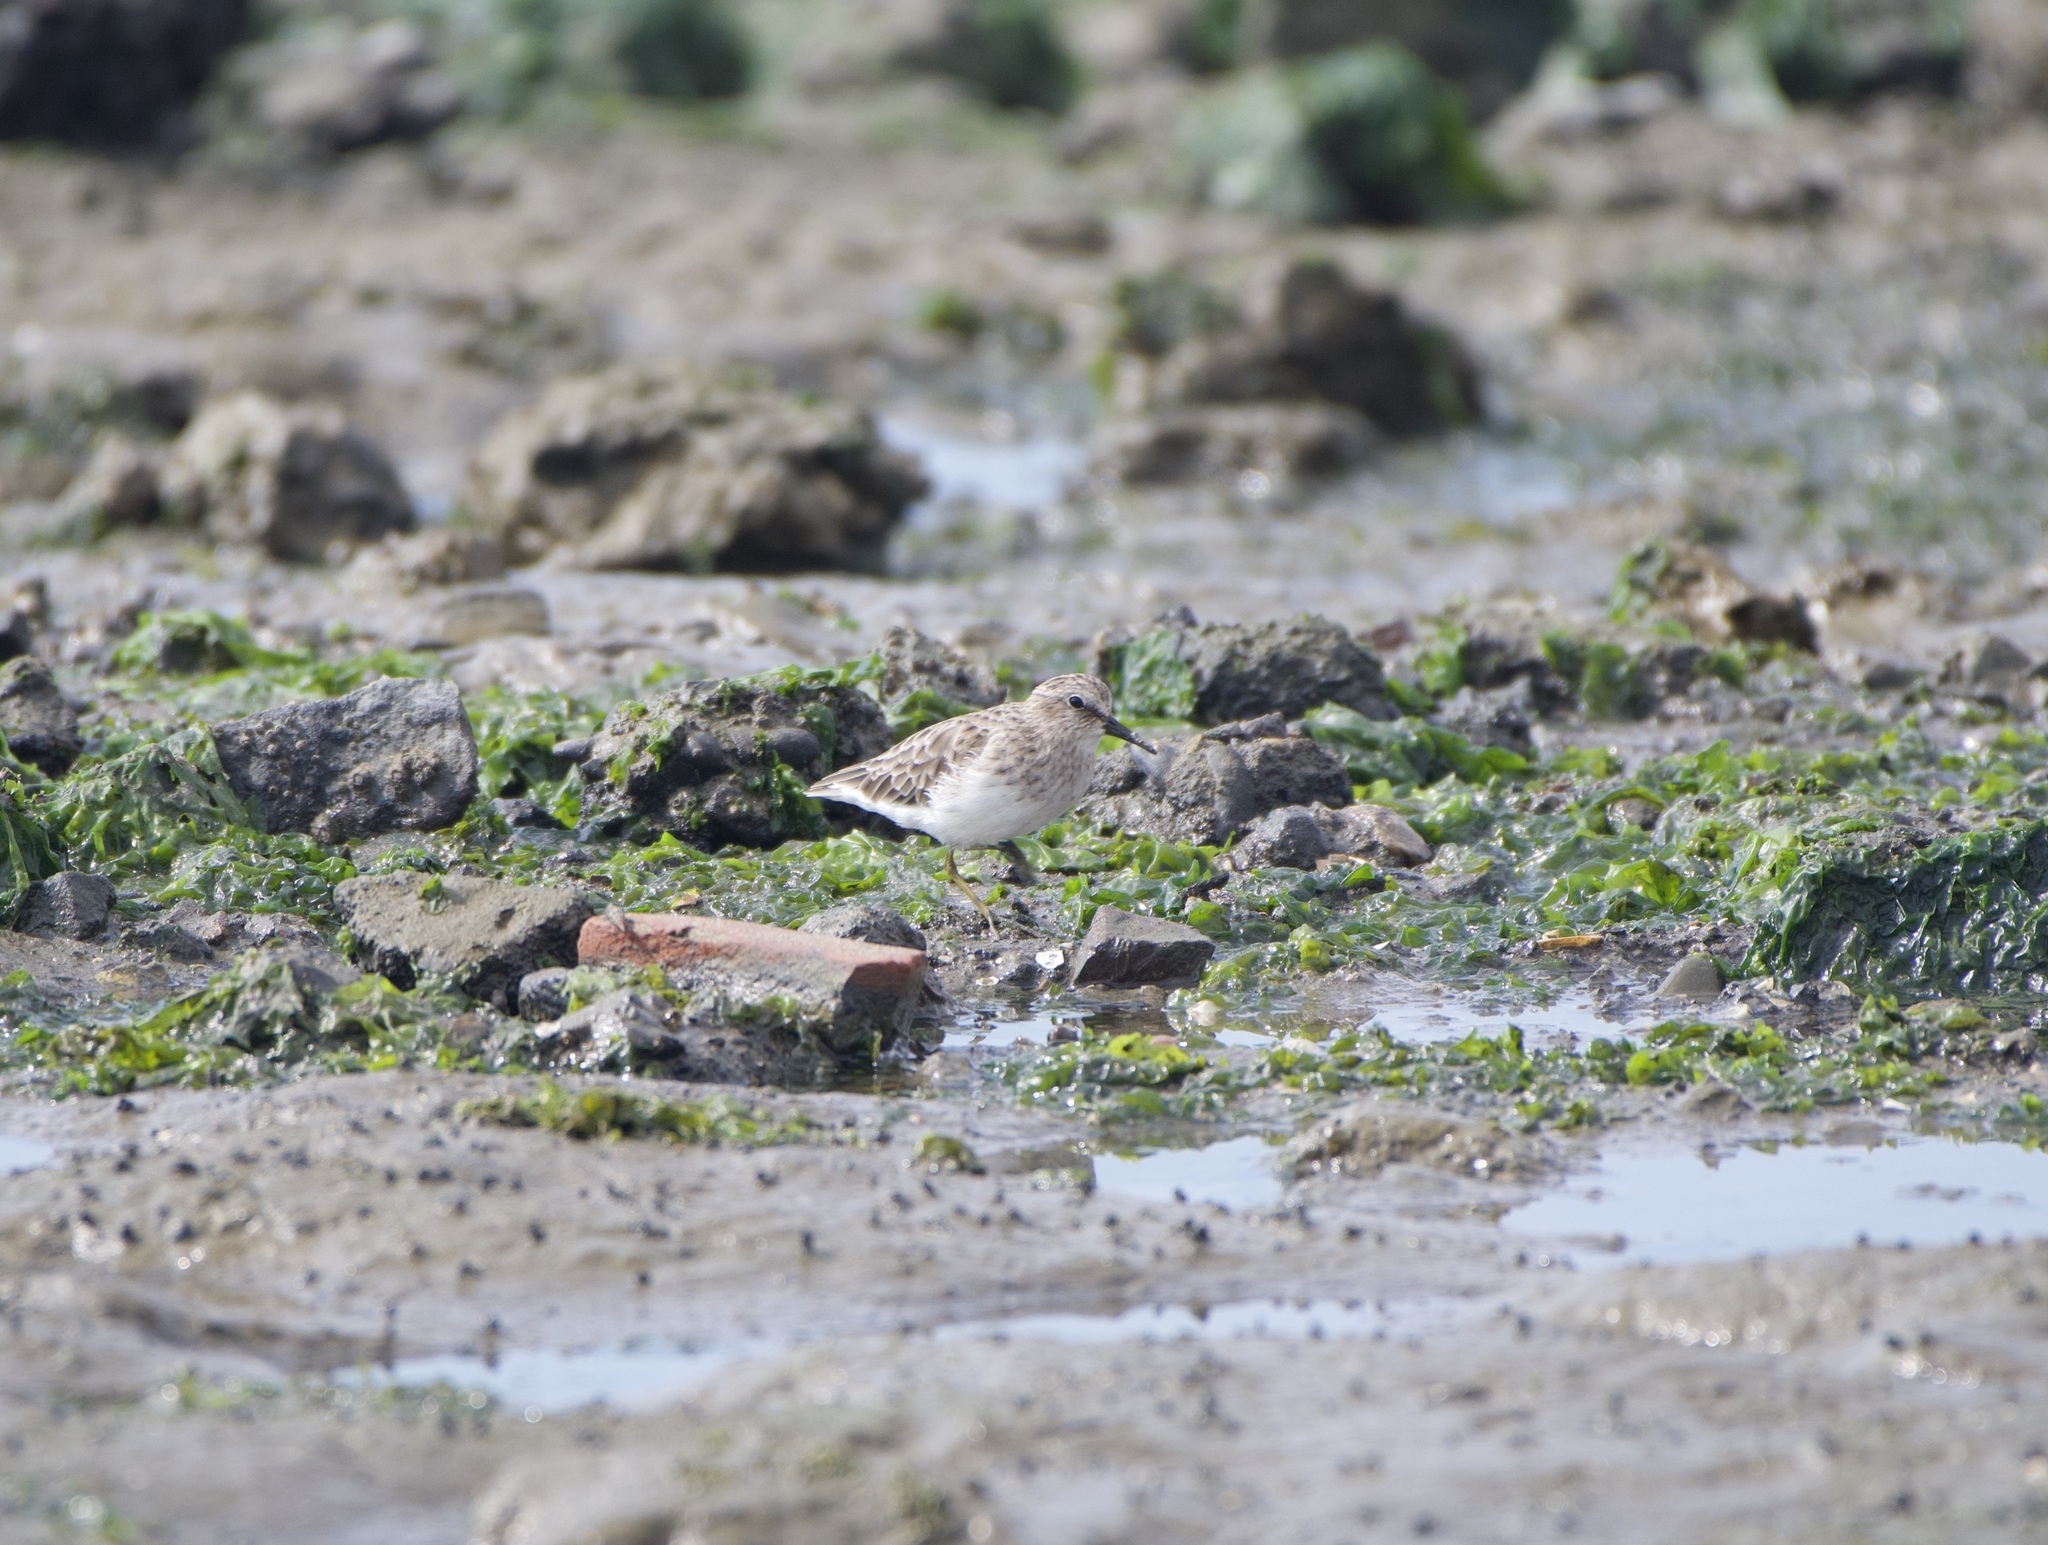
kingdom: Animalia
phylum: Chordata
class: Aves
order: Charadriiformes
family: Scolopacidae
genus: Calidris
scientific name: Calidris minutilla
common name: Least sandpiper
